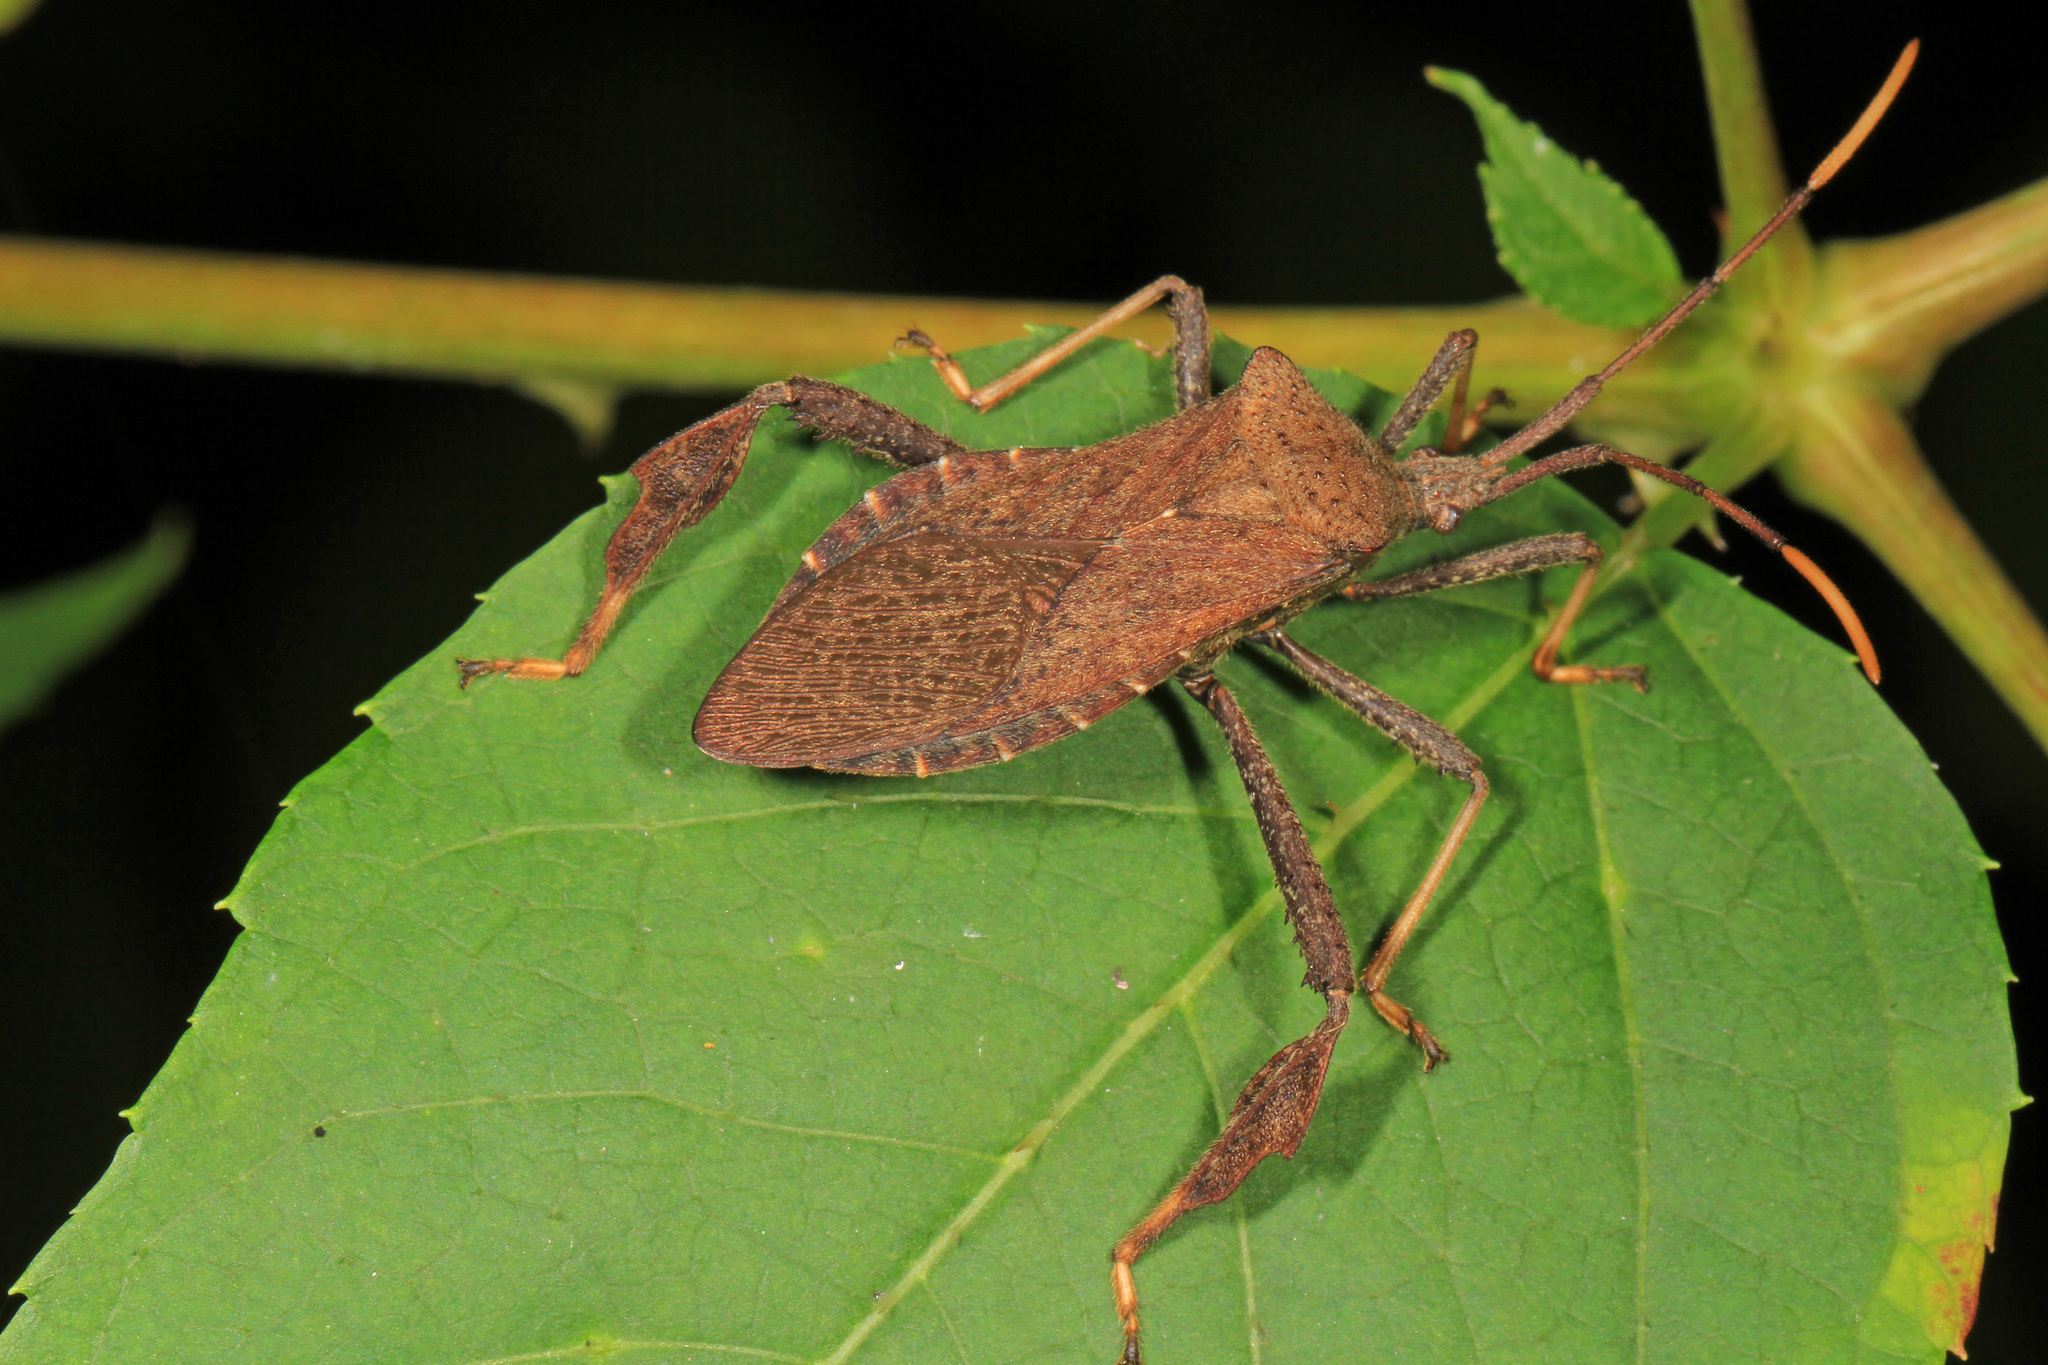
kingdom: Animalia
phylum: Arthropoda
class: Insecta
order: Hemiptera
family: Coreidae
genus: Acanthocephala
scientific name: Acanthocephala terminalis
